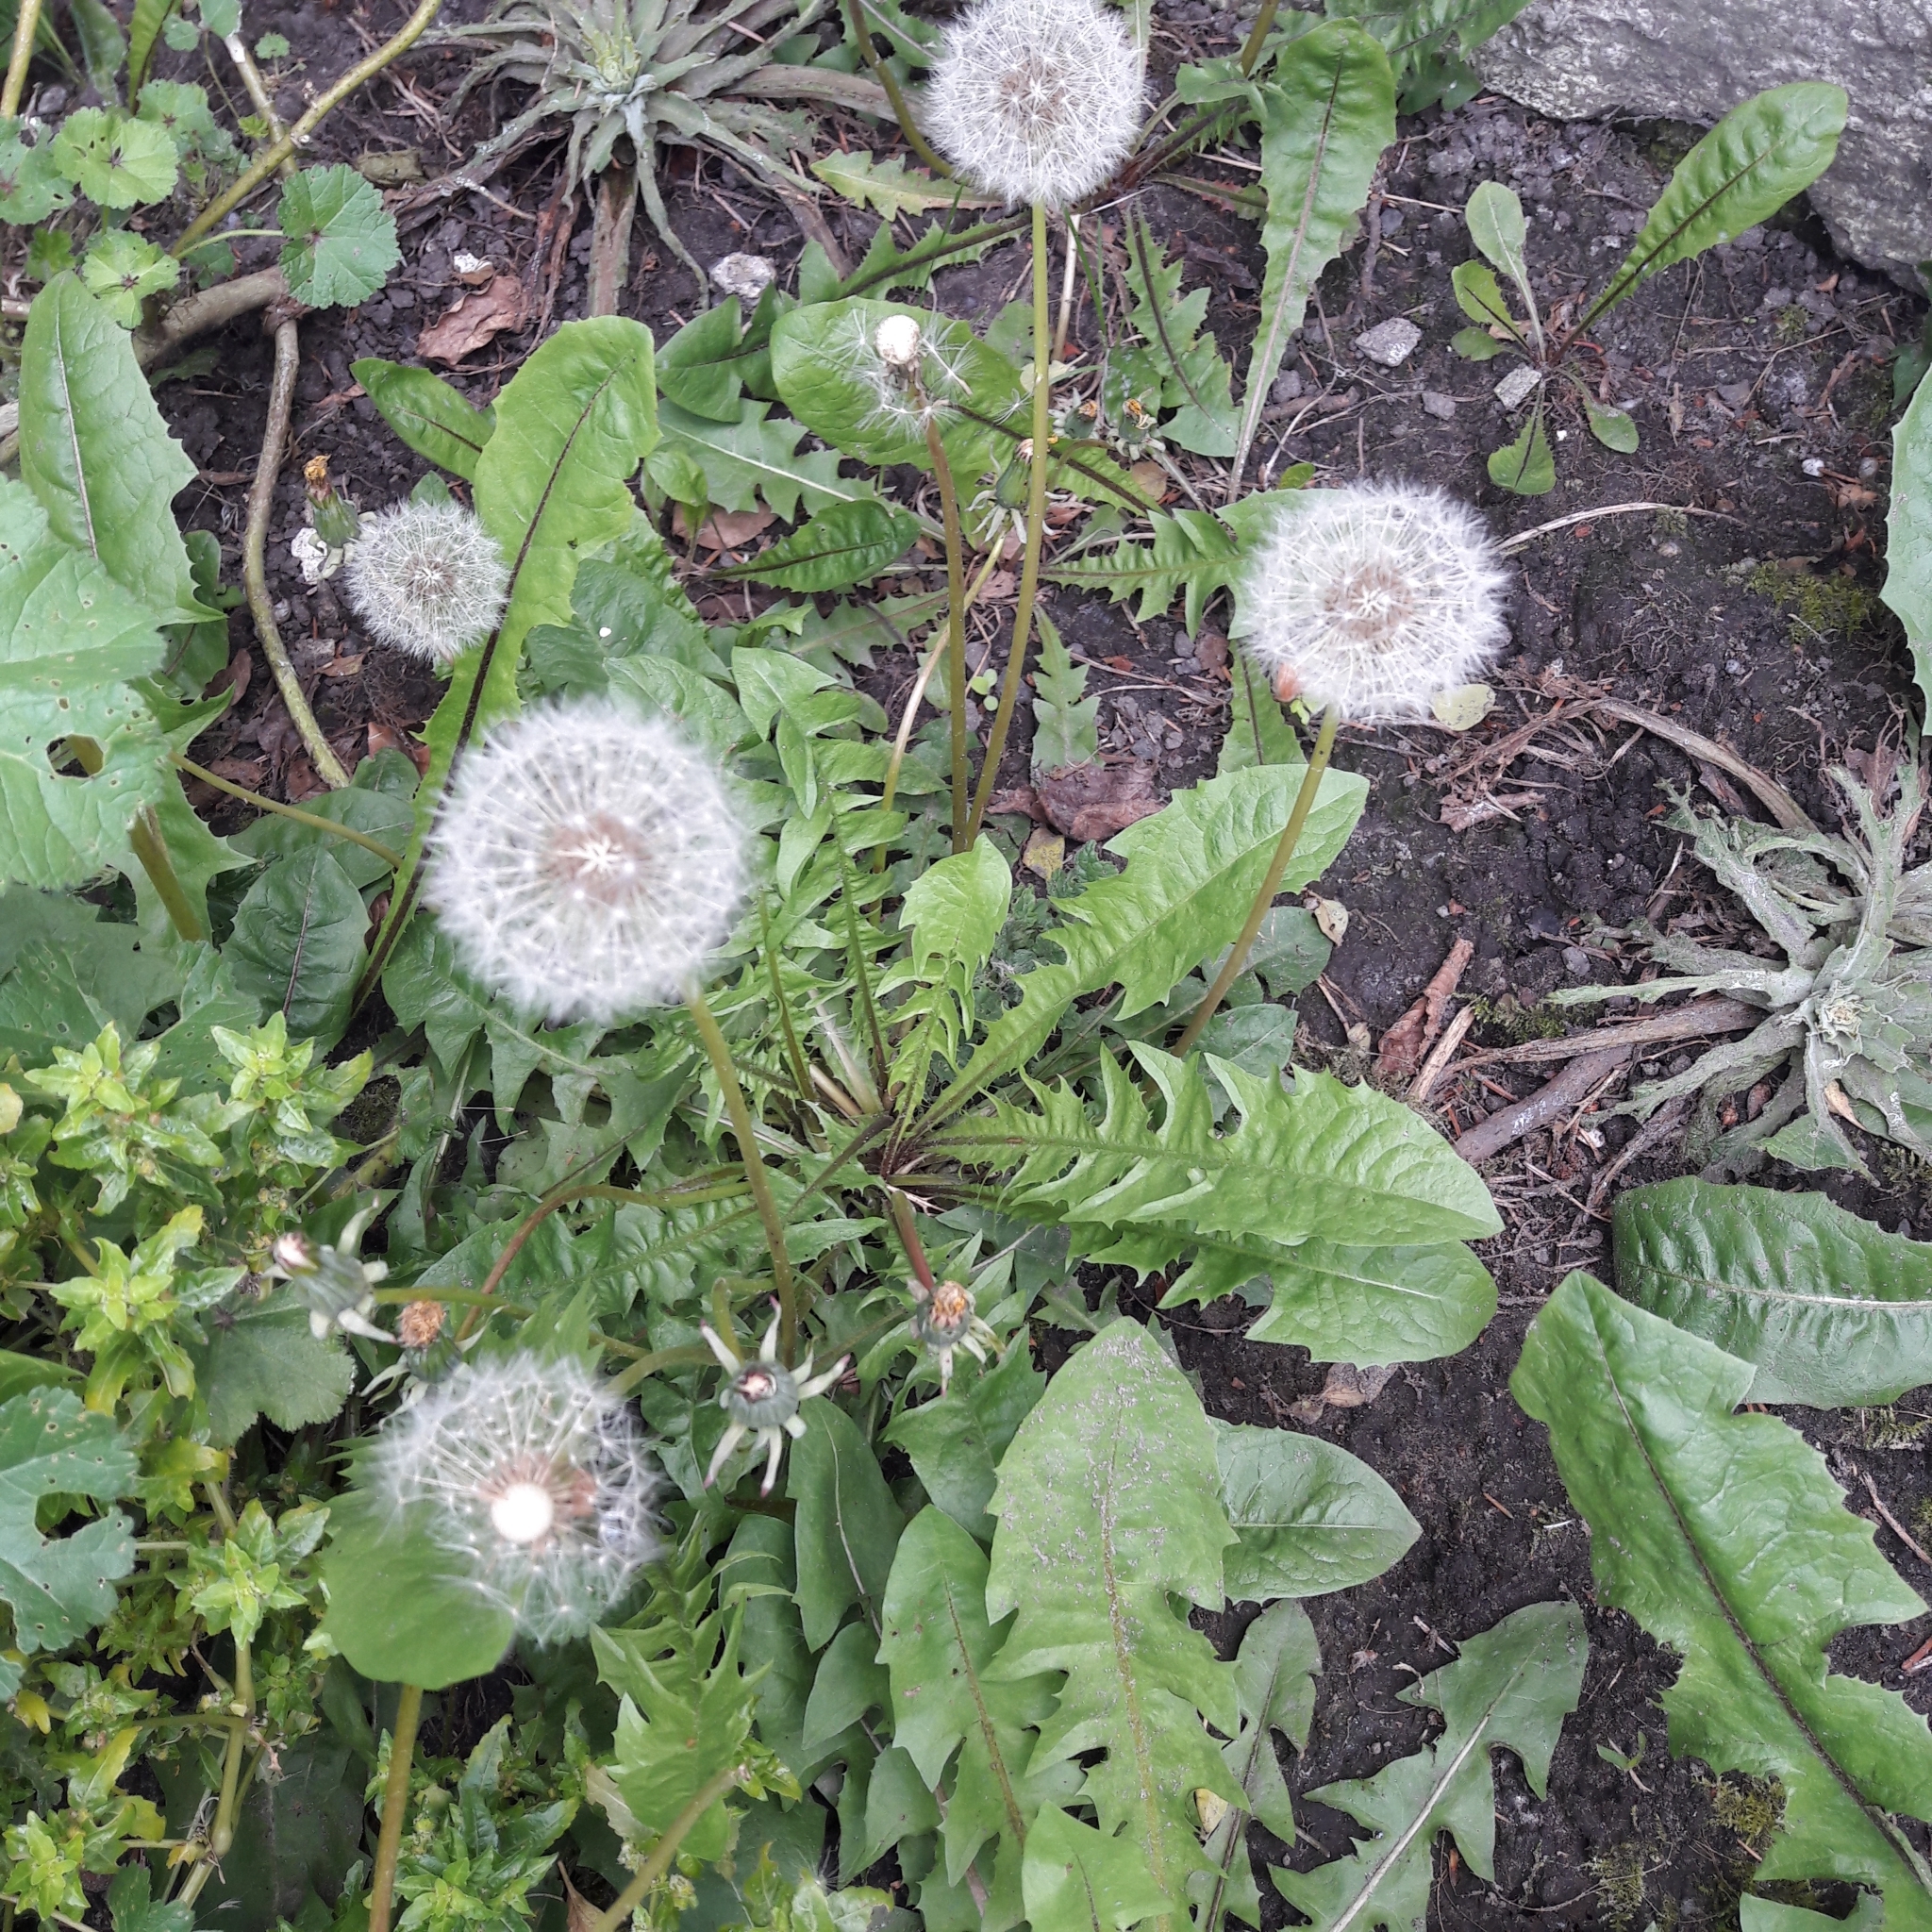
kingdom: Plantae
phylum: Tracheophyta
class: Magnoliopsida
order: Asterales
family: Asteraceae
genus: Taraxacum
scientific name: Taraxacum officinale
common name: Common dandelion
